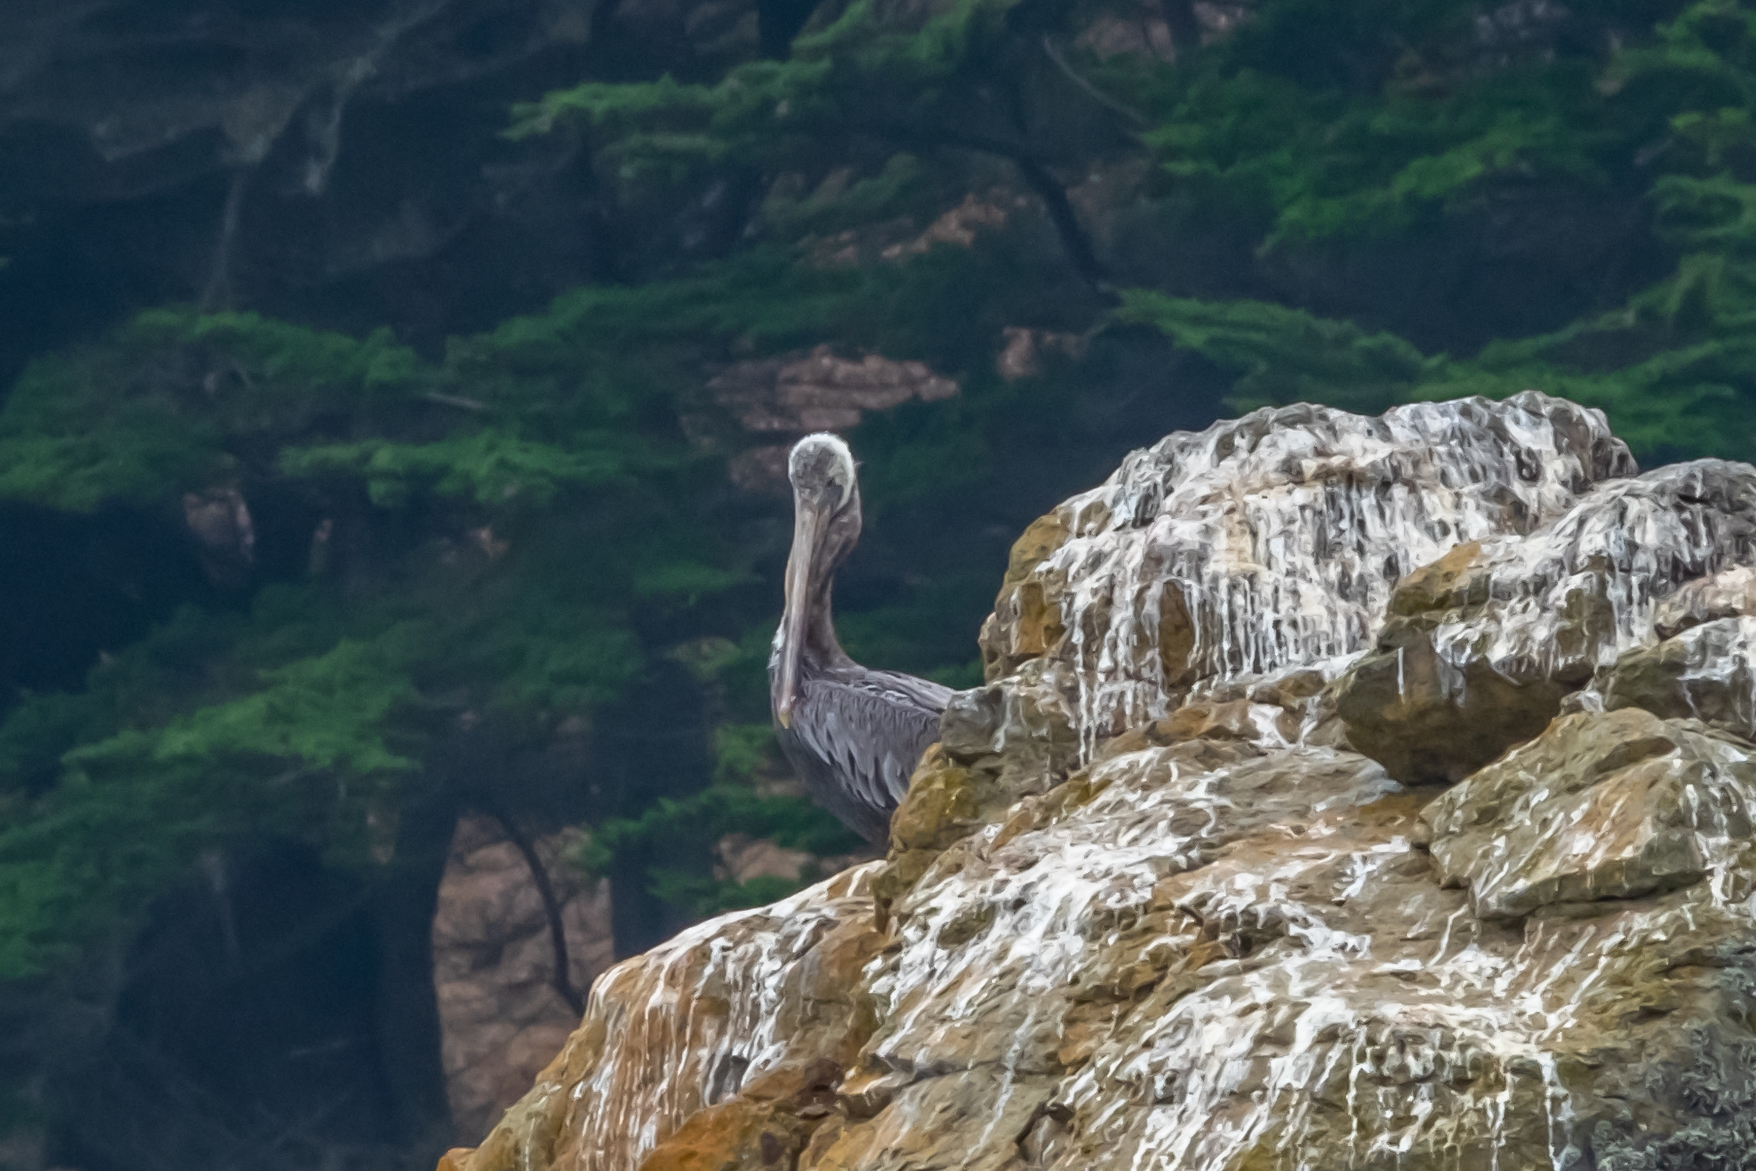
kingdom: Animalia
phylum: Chordata
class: Aves
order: Pelecaniformes
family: Pelecanidae
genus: Pelecanus
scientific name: Pelecanus occidentalis
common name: Brown pelican
